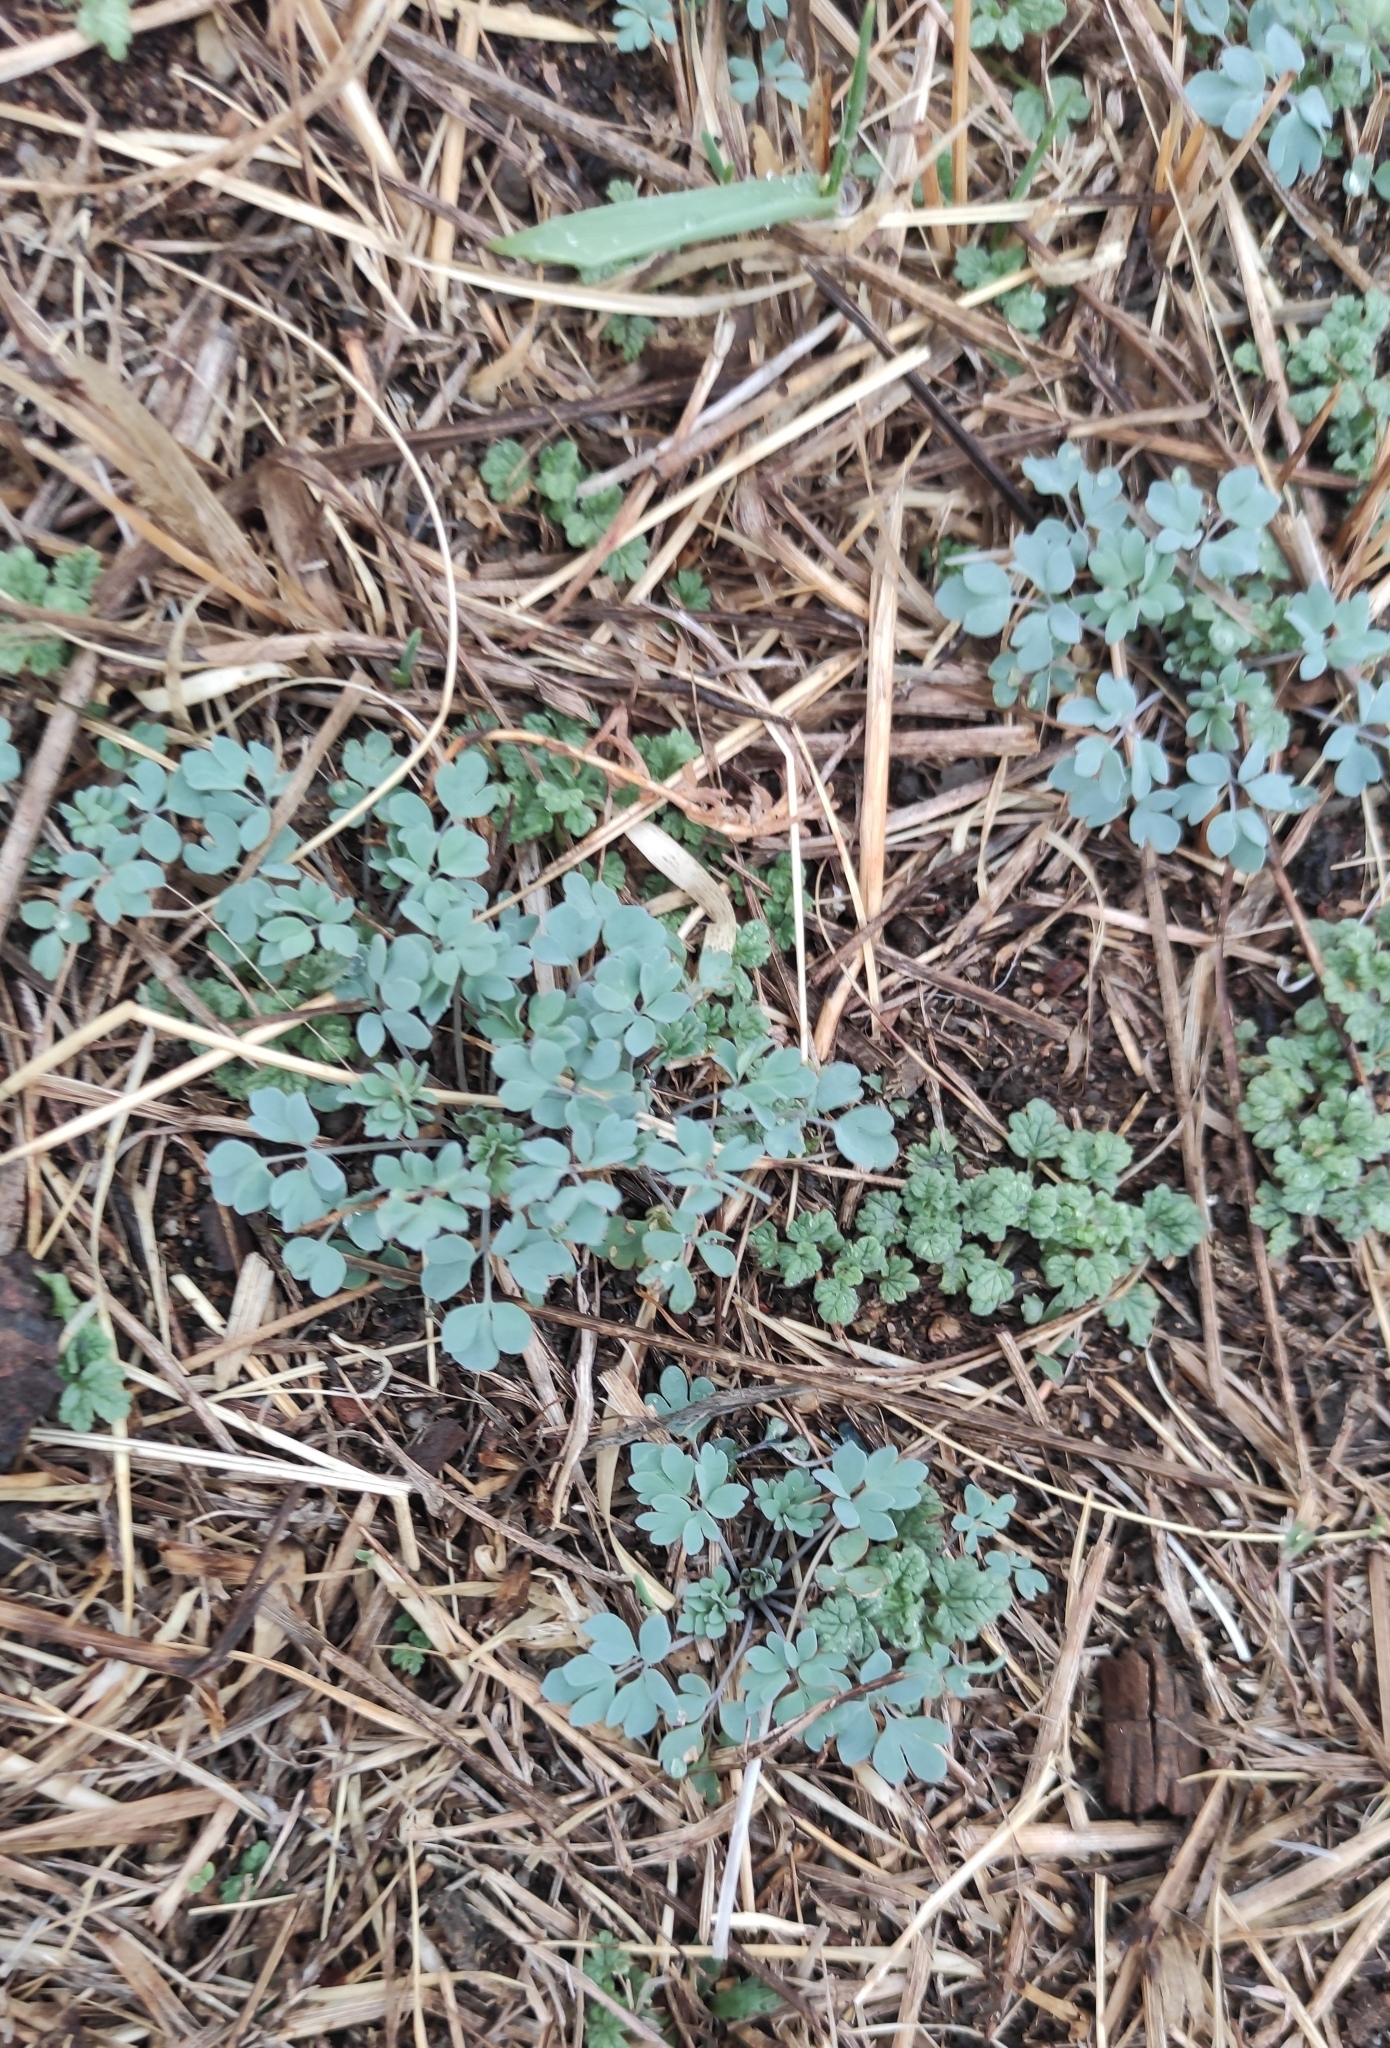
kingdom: Plantae
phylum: Tracheophyta
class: Magnoliopsida
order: Ranunculales
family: Ranunculaceae
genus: Leptopyrum
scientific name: Leptopyrum fumarioides
